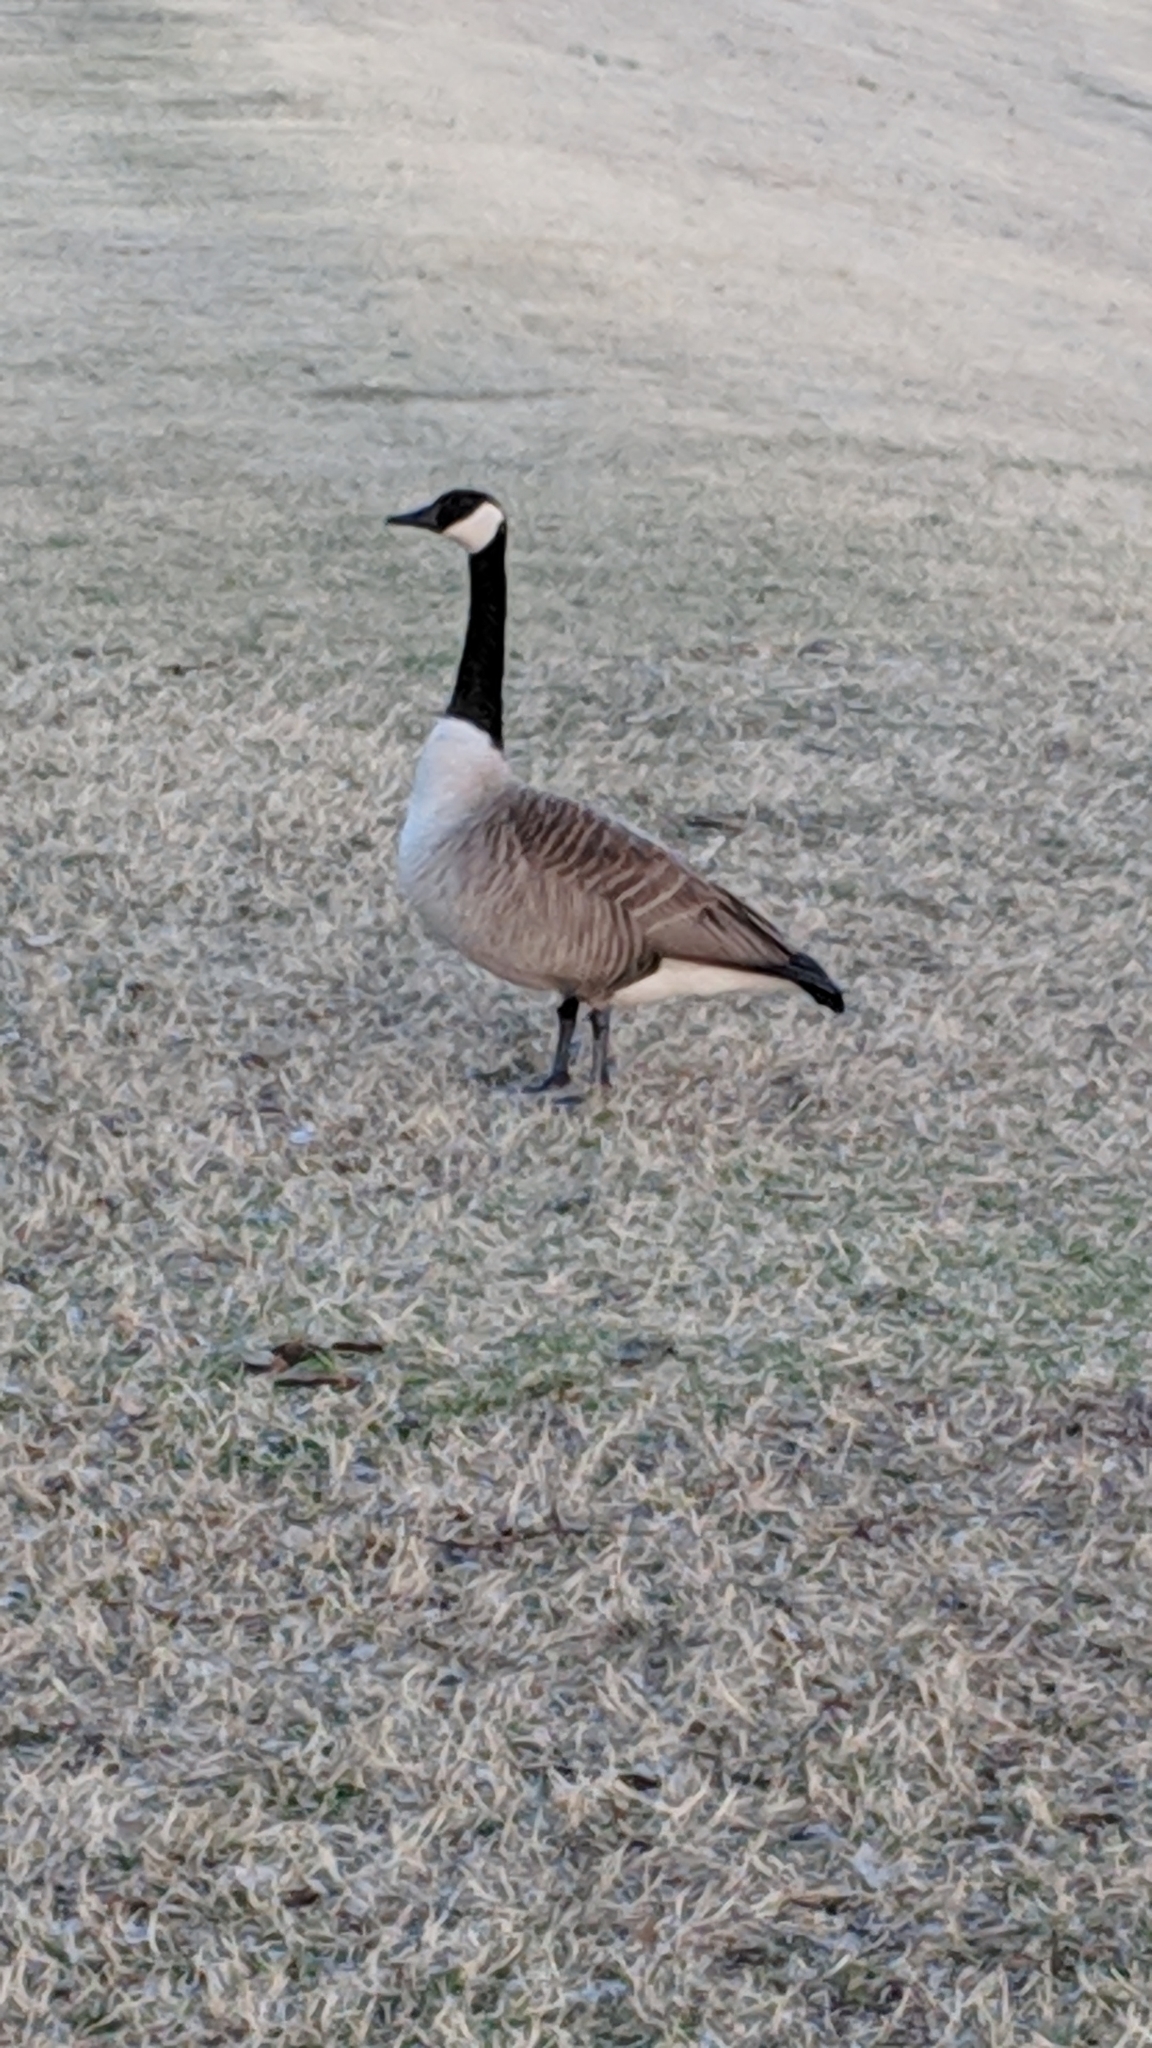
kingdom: Animalia
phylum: Chordata
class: Aves
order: Anseriformes
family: Anatidae
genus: Branta
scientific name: Branta canadensis
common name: Canada goose
